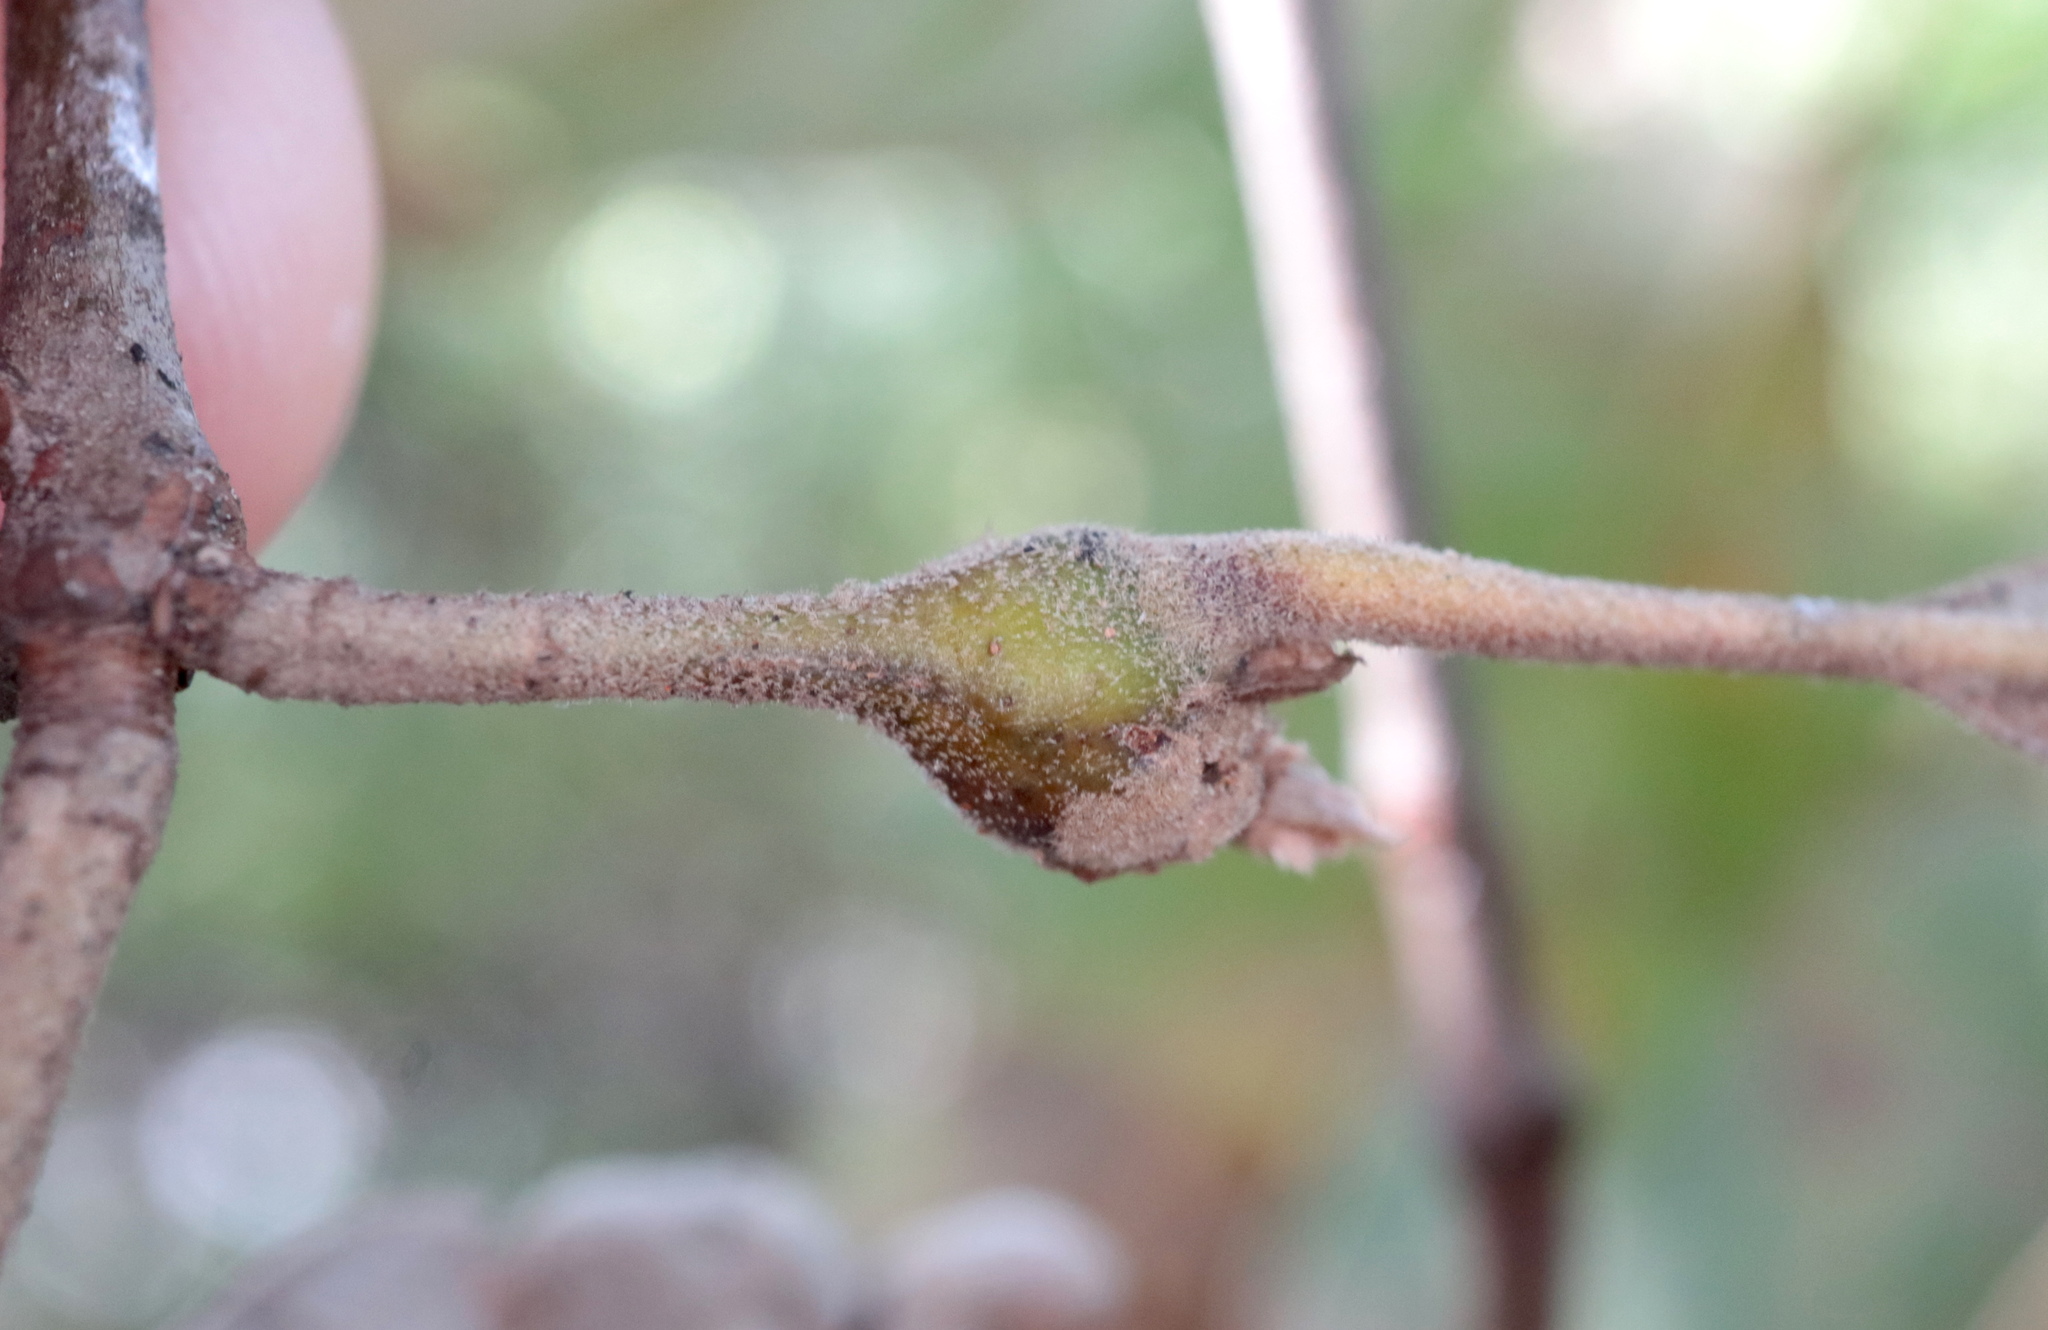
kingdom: Animalia
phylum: Arthropoda
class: Insecta
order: Hymenoptera
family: Cynipidae
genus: Zapatella
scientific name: Zapatella quercusphellos
